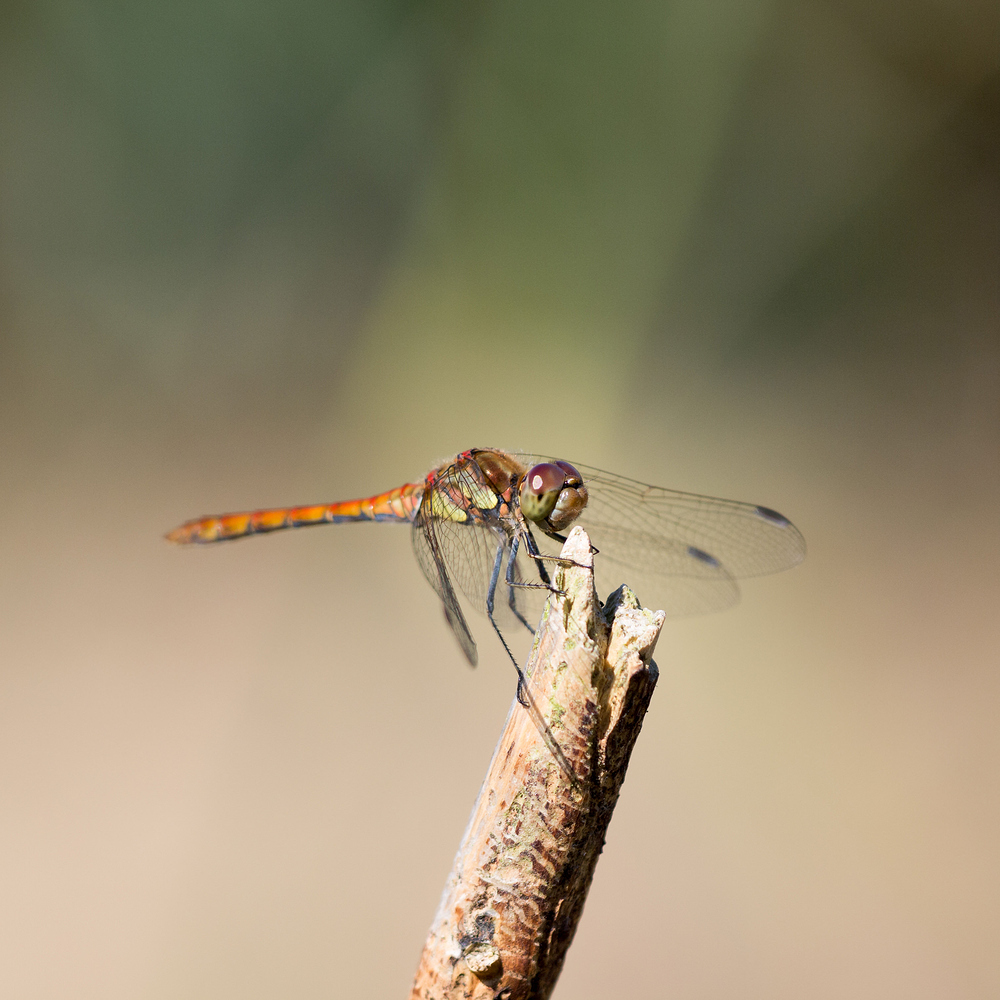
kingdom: Animalia
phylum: Arthropoda
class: Insecta
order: Odonata
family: Libellulidae
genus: Sympetrum
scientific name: Sympetrum striolatum
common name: Common darter
